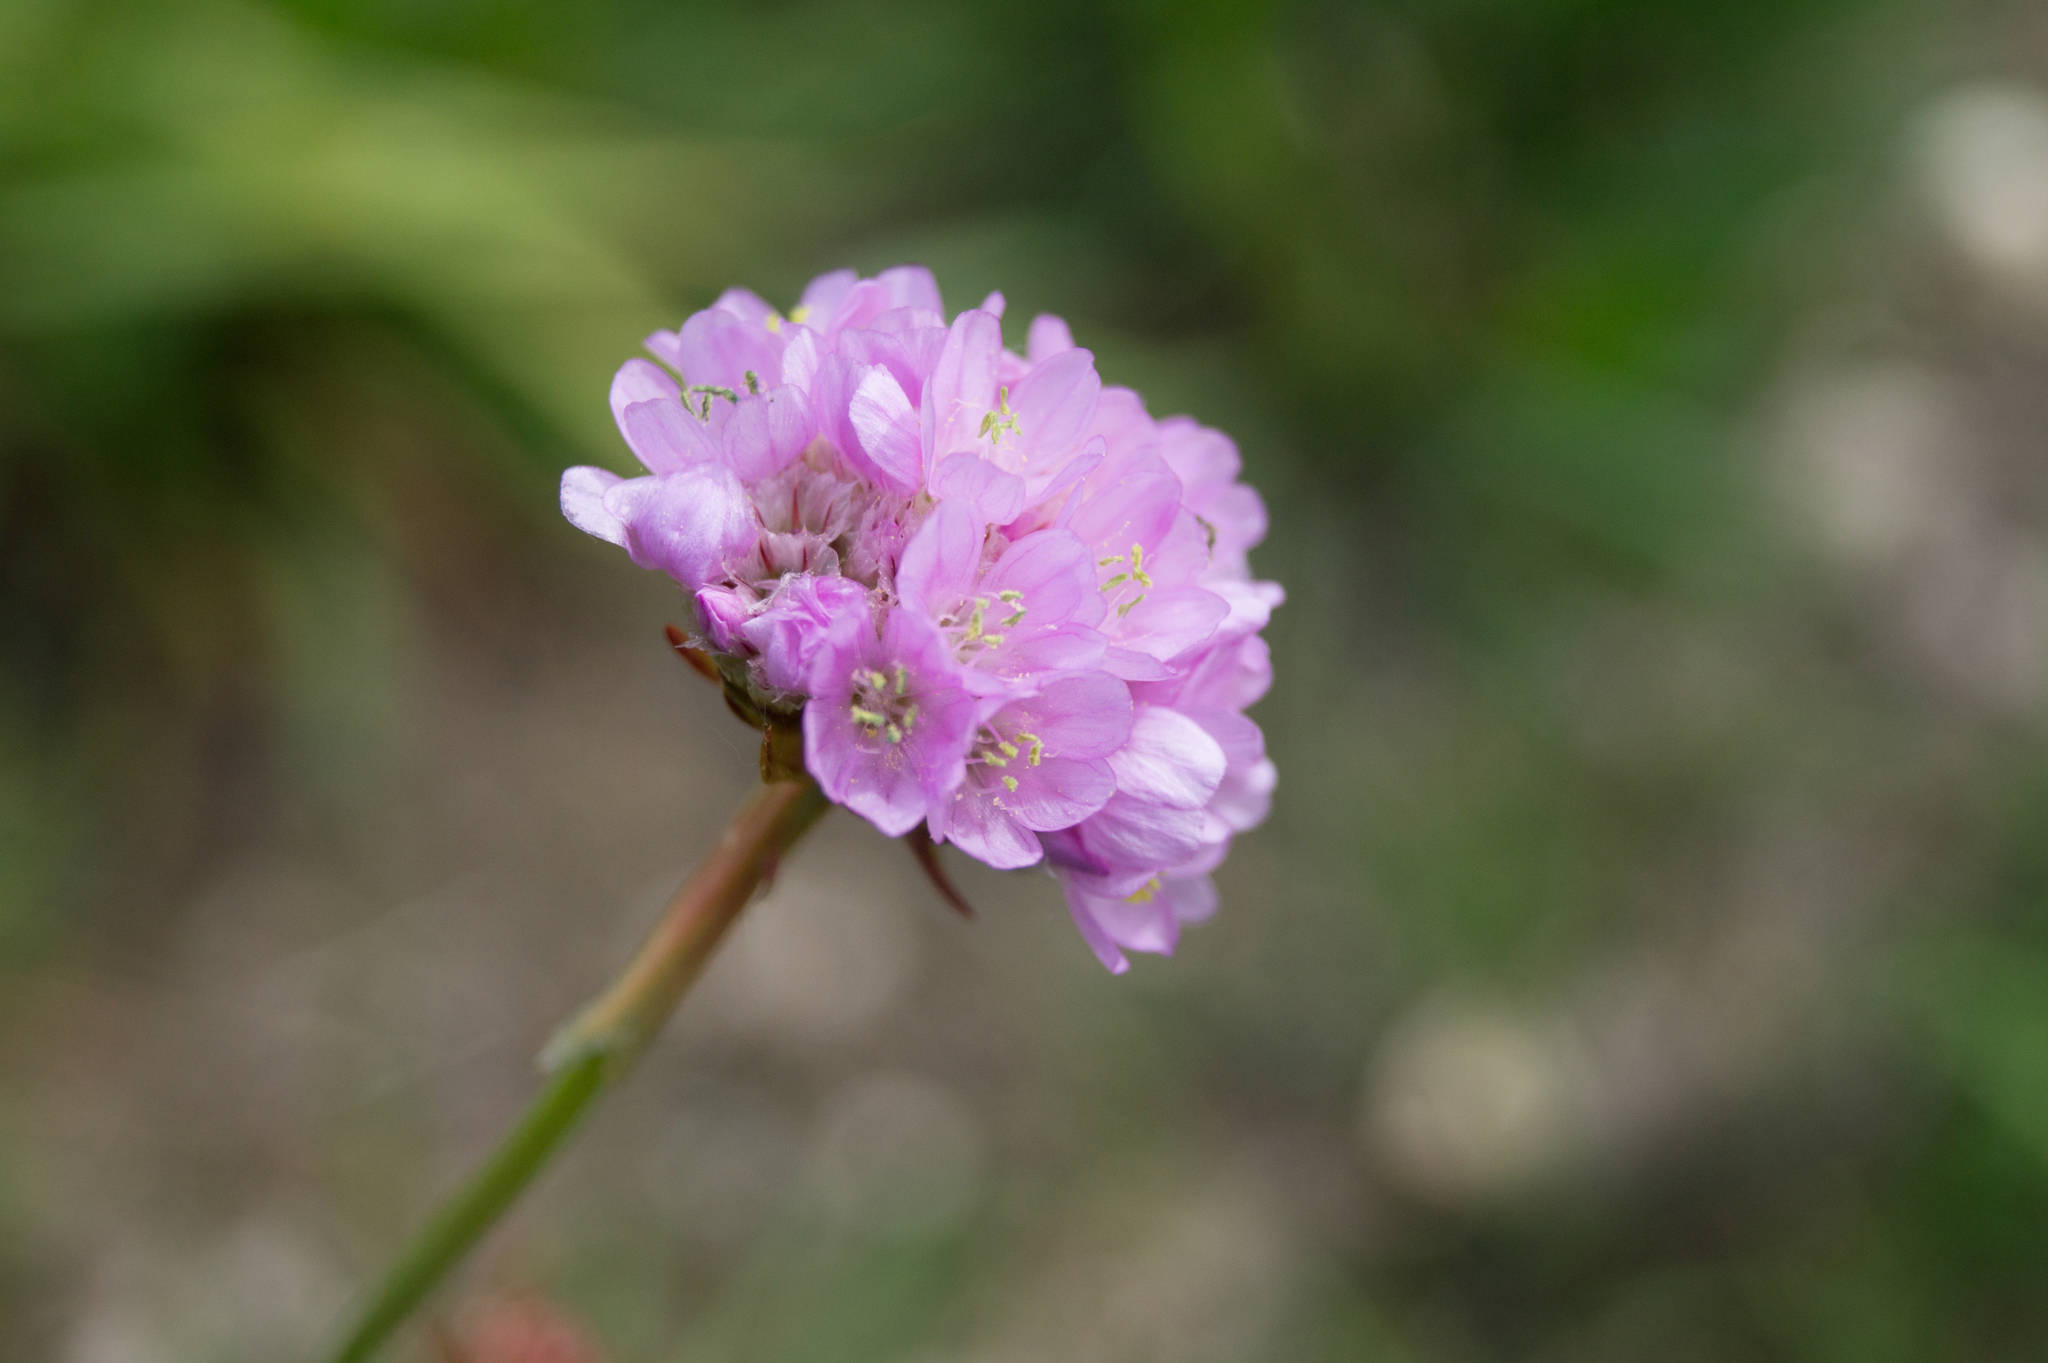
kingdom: Plantae
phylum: Tracheophyta
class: Magnoliopsida
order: Caryophyllales
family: Plumbaginaceae
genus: Armeria
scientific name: Armeria maritima
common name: Thrift
